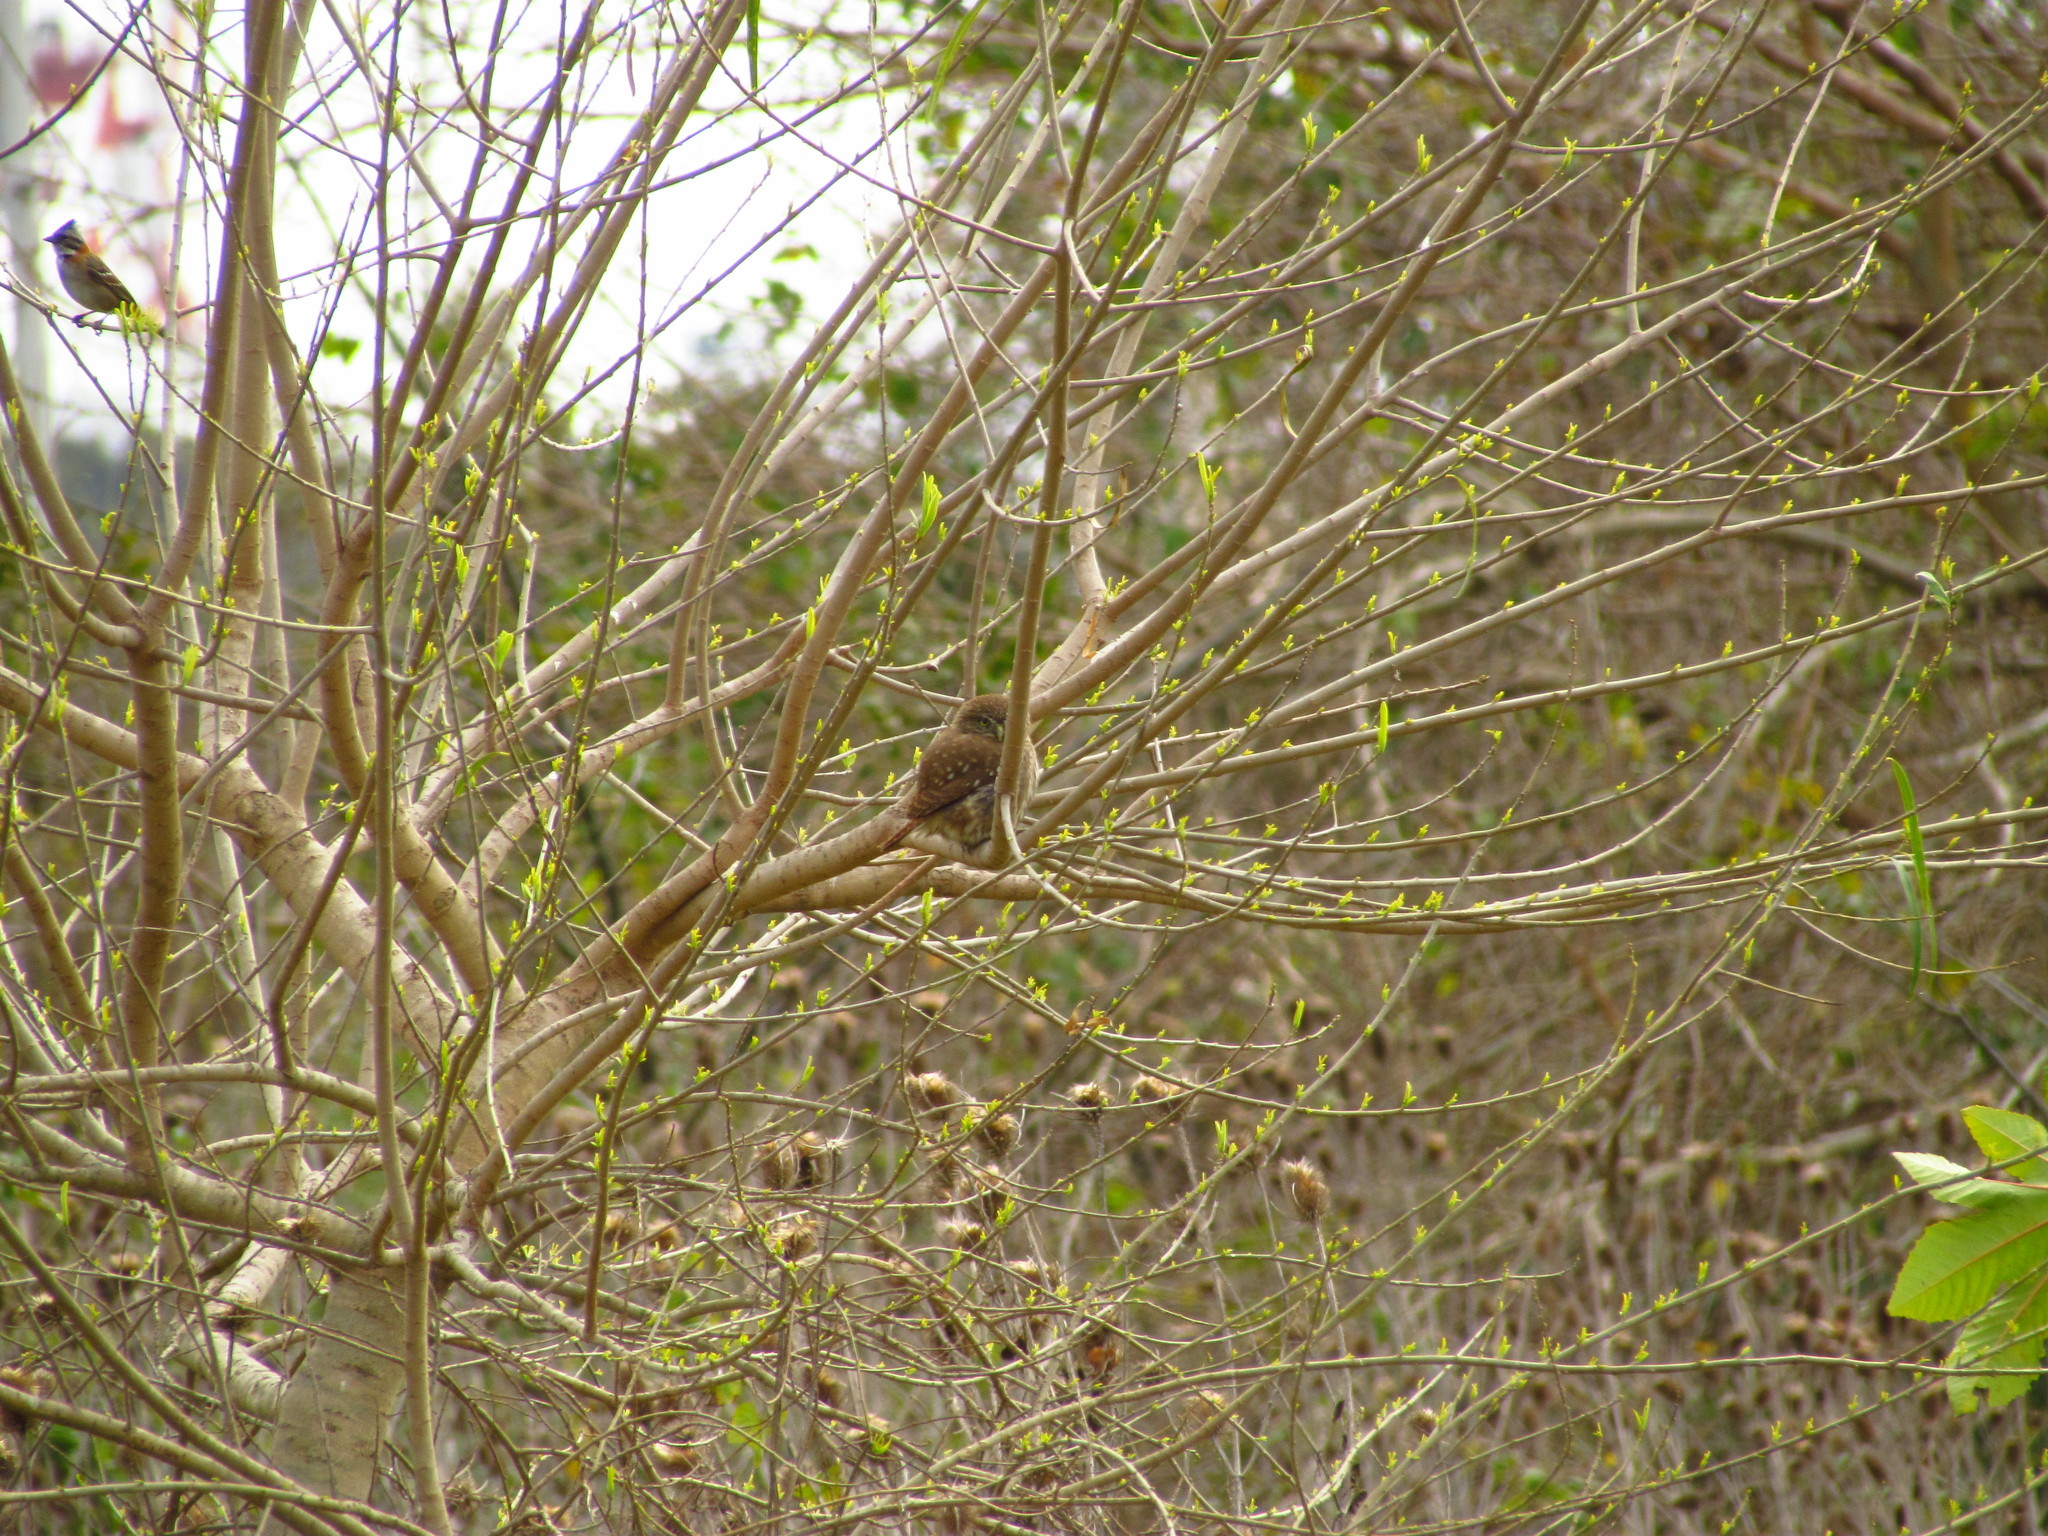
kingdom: Animalia
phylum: Chordata
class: Aves
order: Strigiformes
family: Strigidae
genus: Glaucidium
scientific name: Glaucidium brasilianum
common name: Ferruginous pygmy-owl
